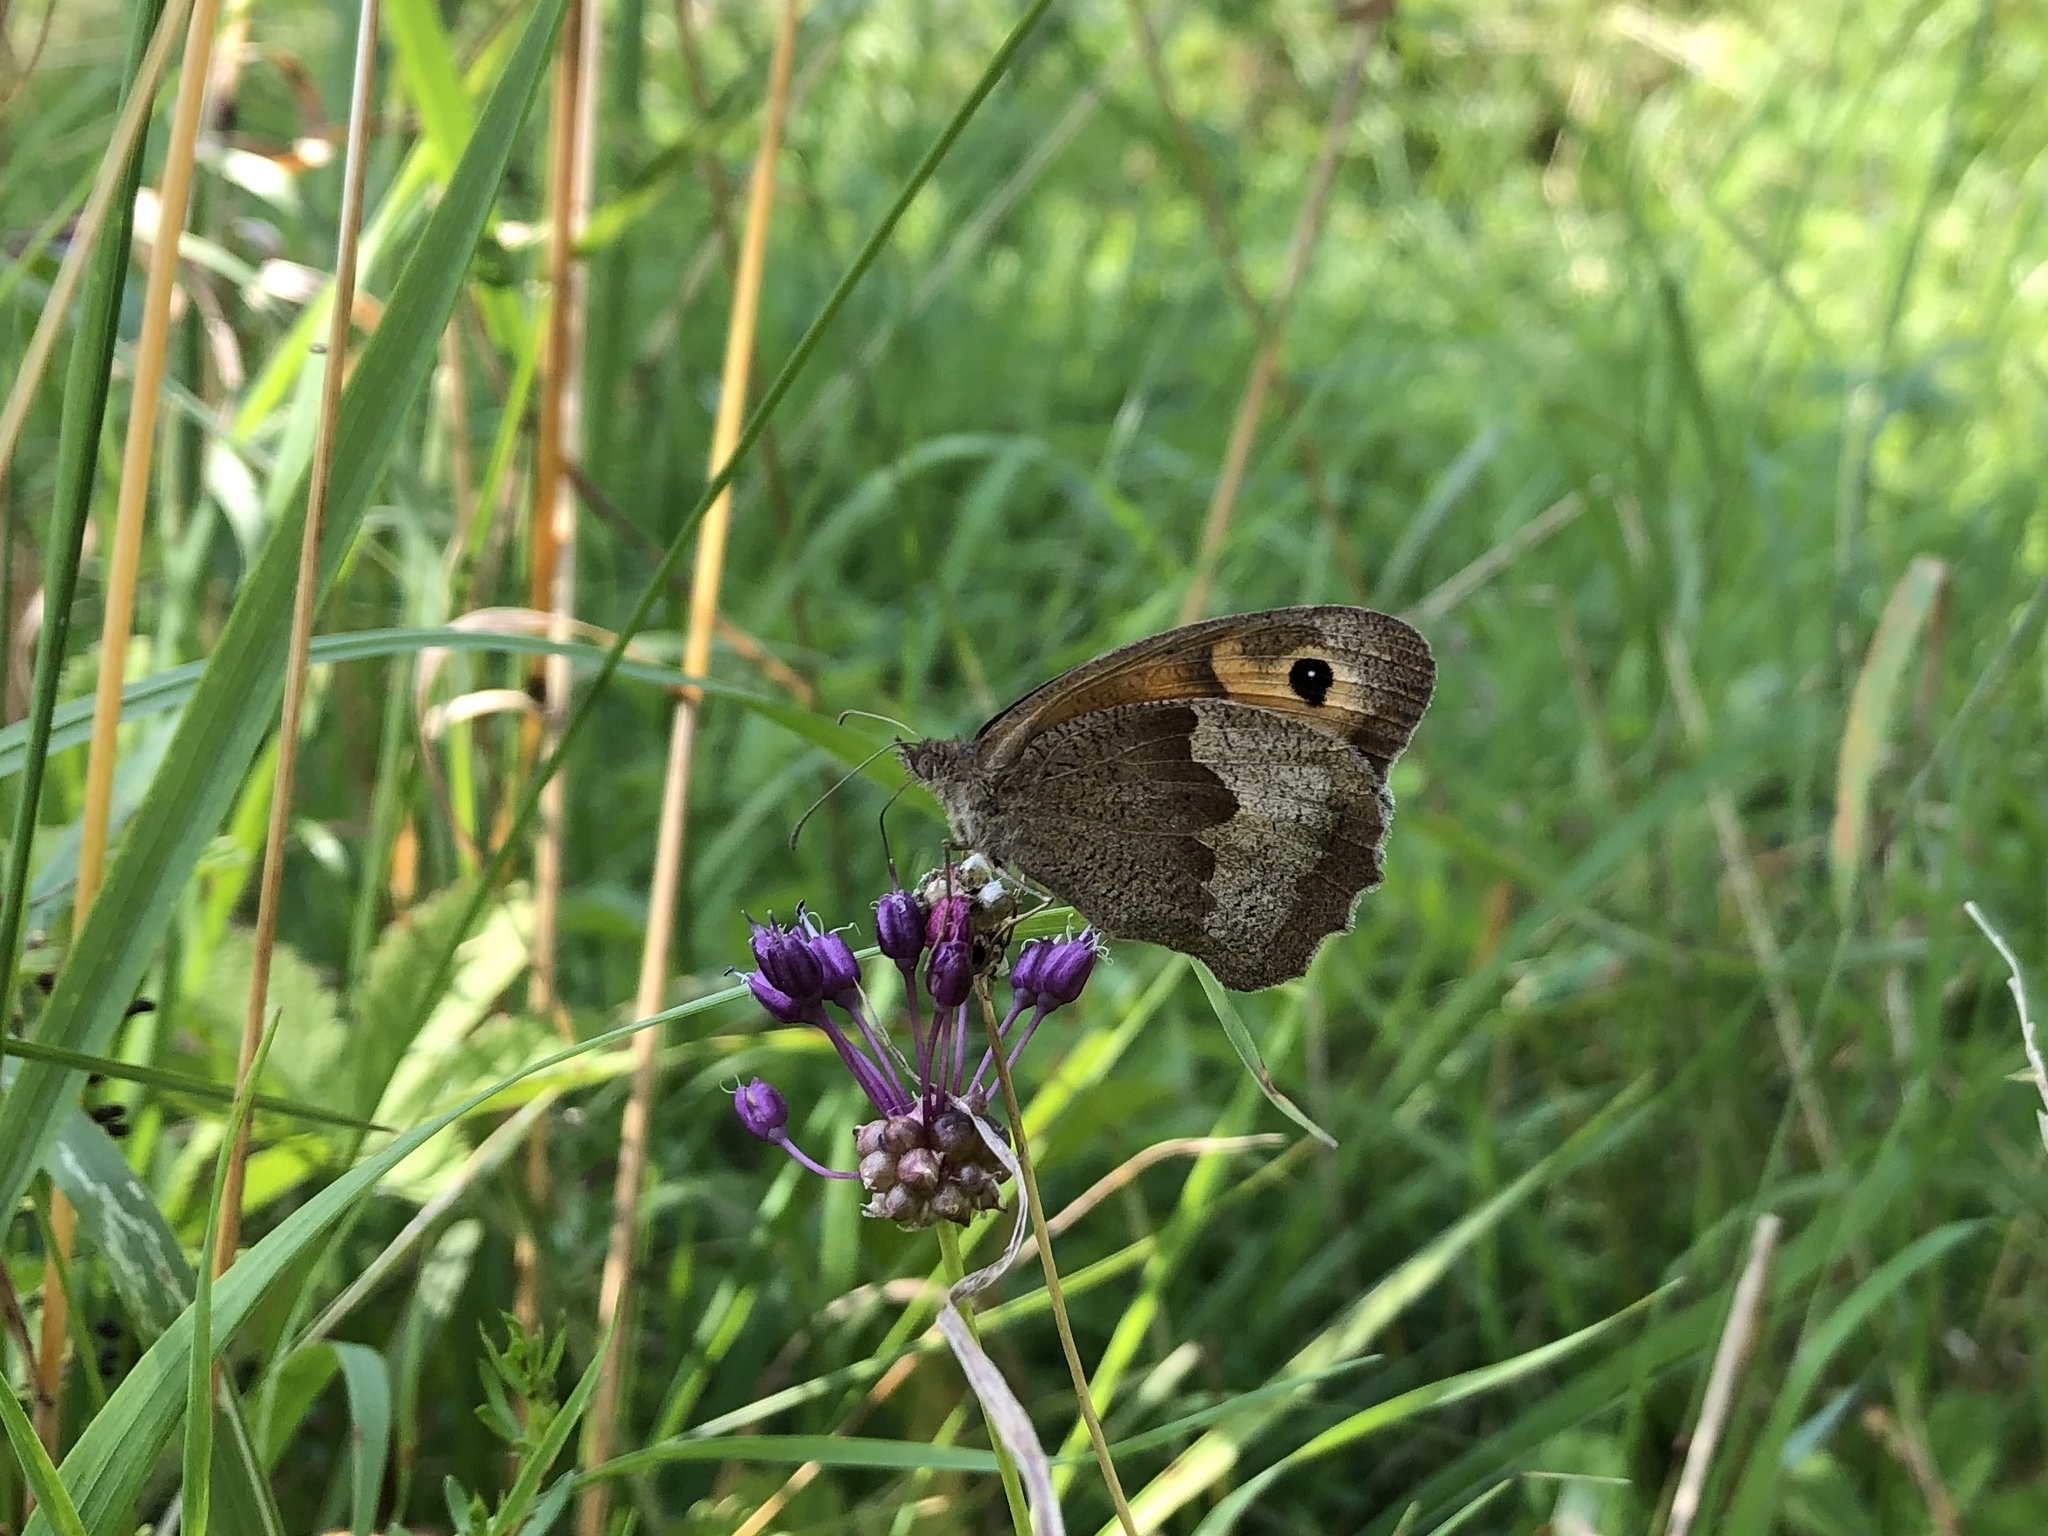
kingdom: Animalia
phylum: Arthropoda
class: Insecta
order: Lepidoptera
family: Nymphalidae
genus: Maniola
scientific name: Maniola jurtina
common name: Meadow brown
